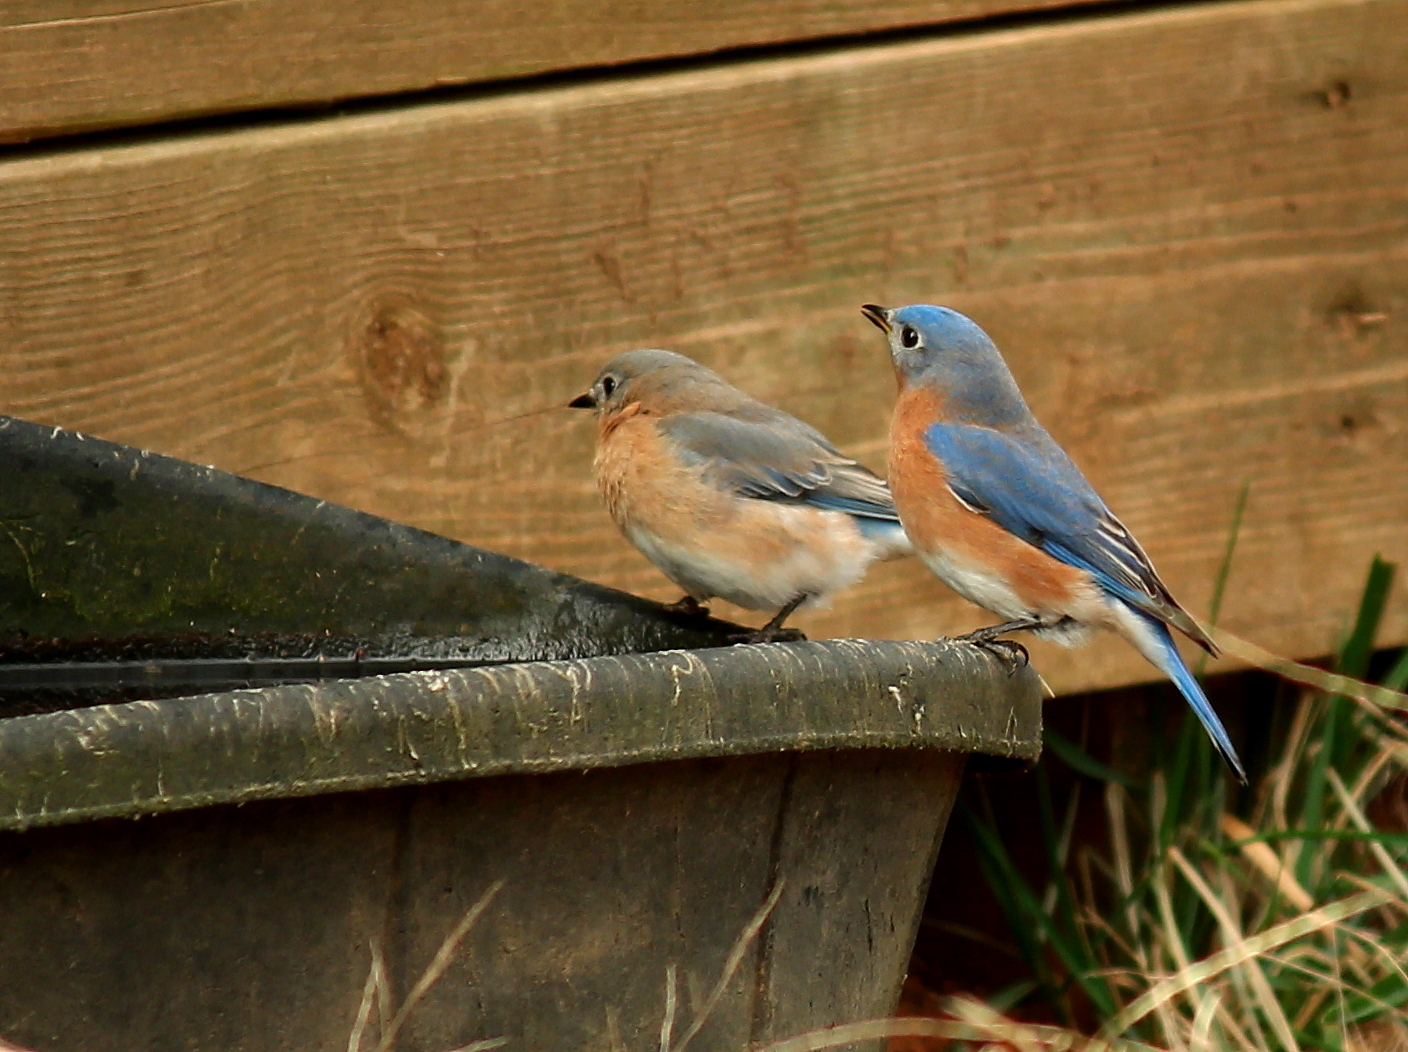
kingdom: Animalia
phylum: Chordata
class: Aves
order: Passeriformes
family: Turdidae
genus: Sialia
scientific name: Sialia sialis
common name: Eastern bluebird
